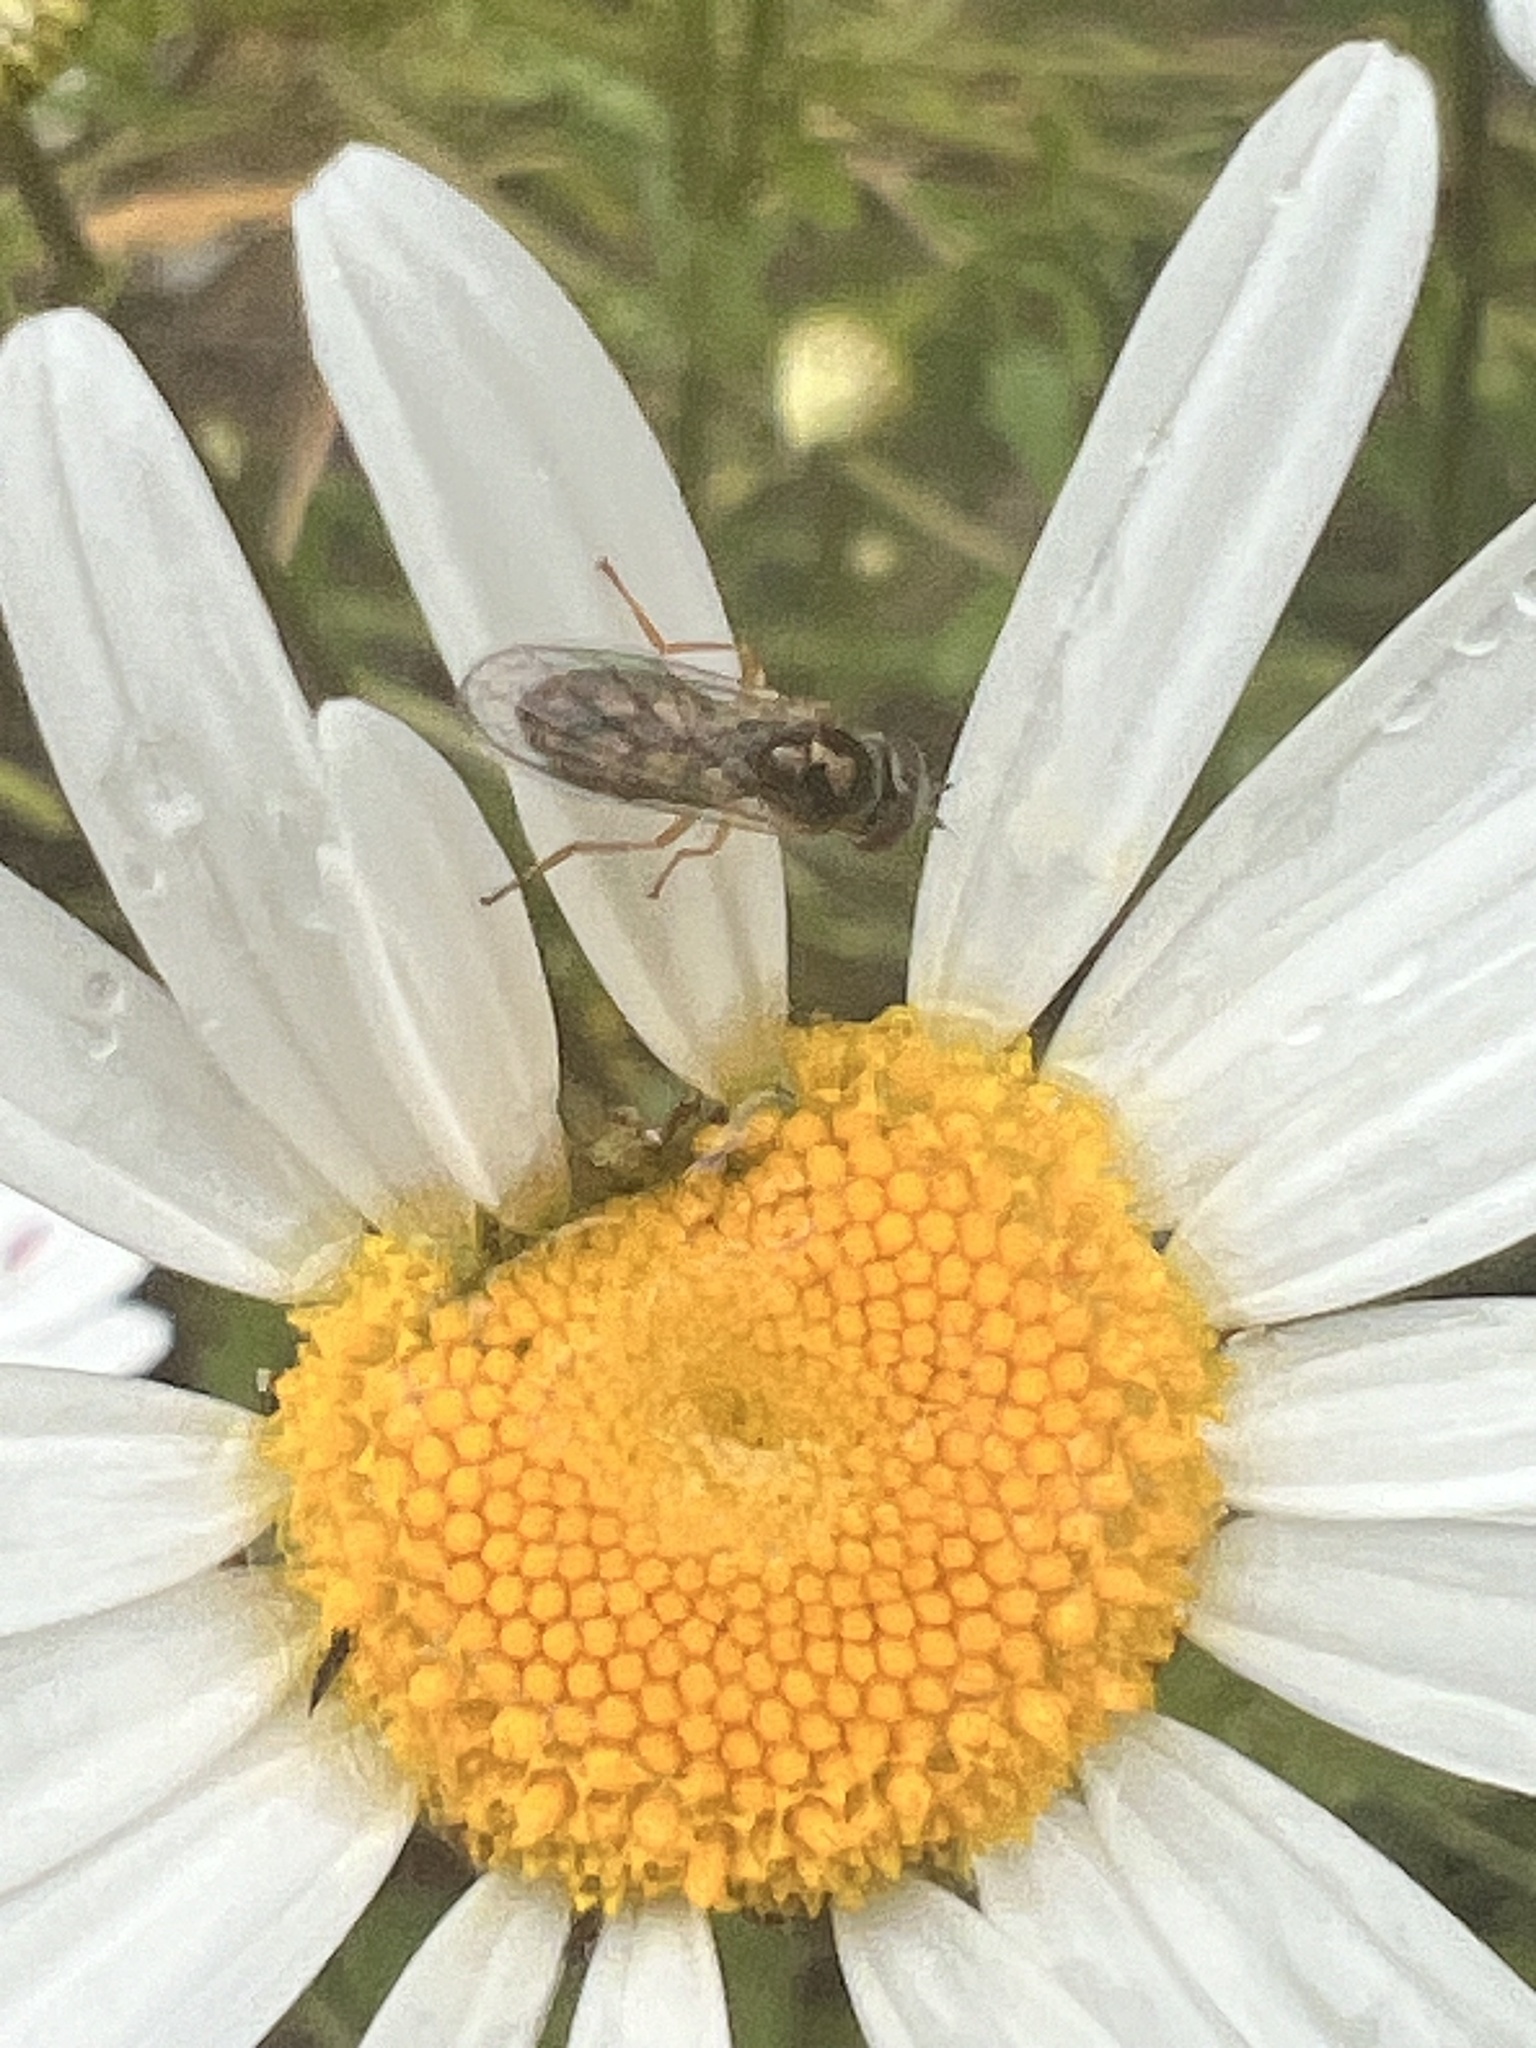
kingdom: Animalia
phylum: Arthropoda
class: Insecta
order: Diptera
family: Syrphidae
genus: Melanostoma
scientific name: Melanostoma fasciatum
